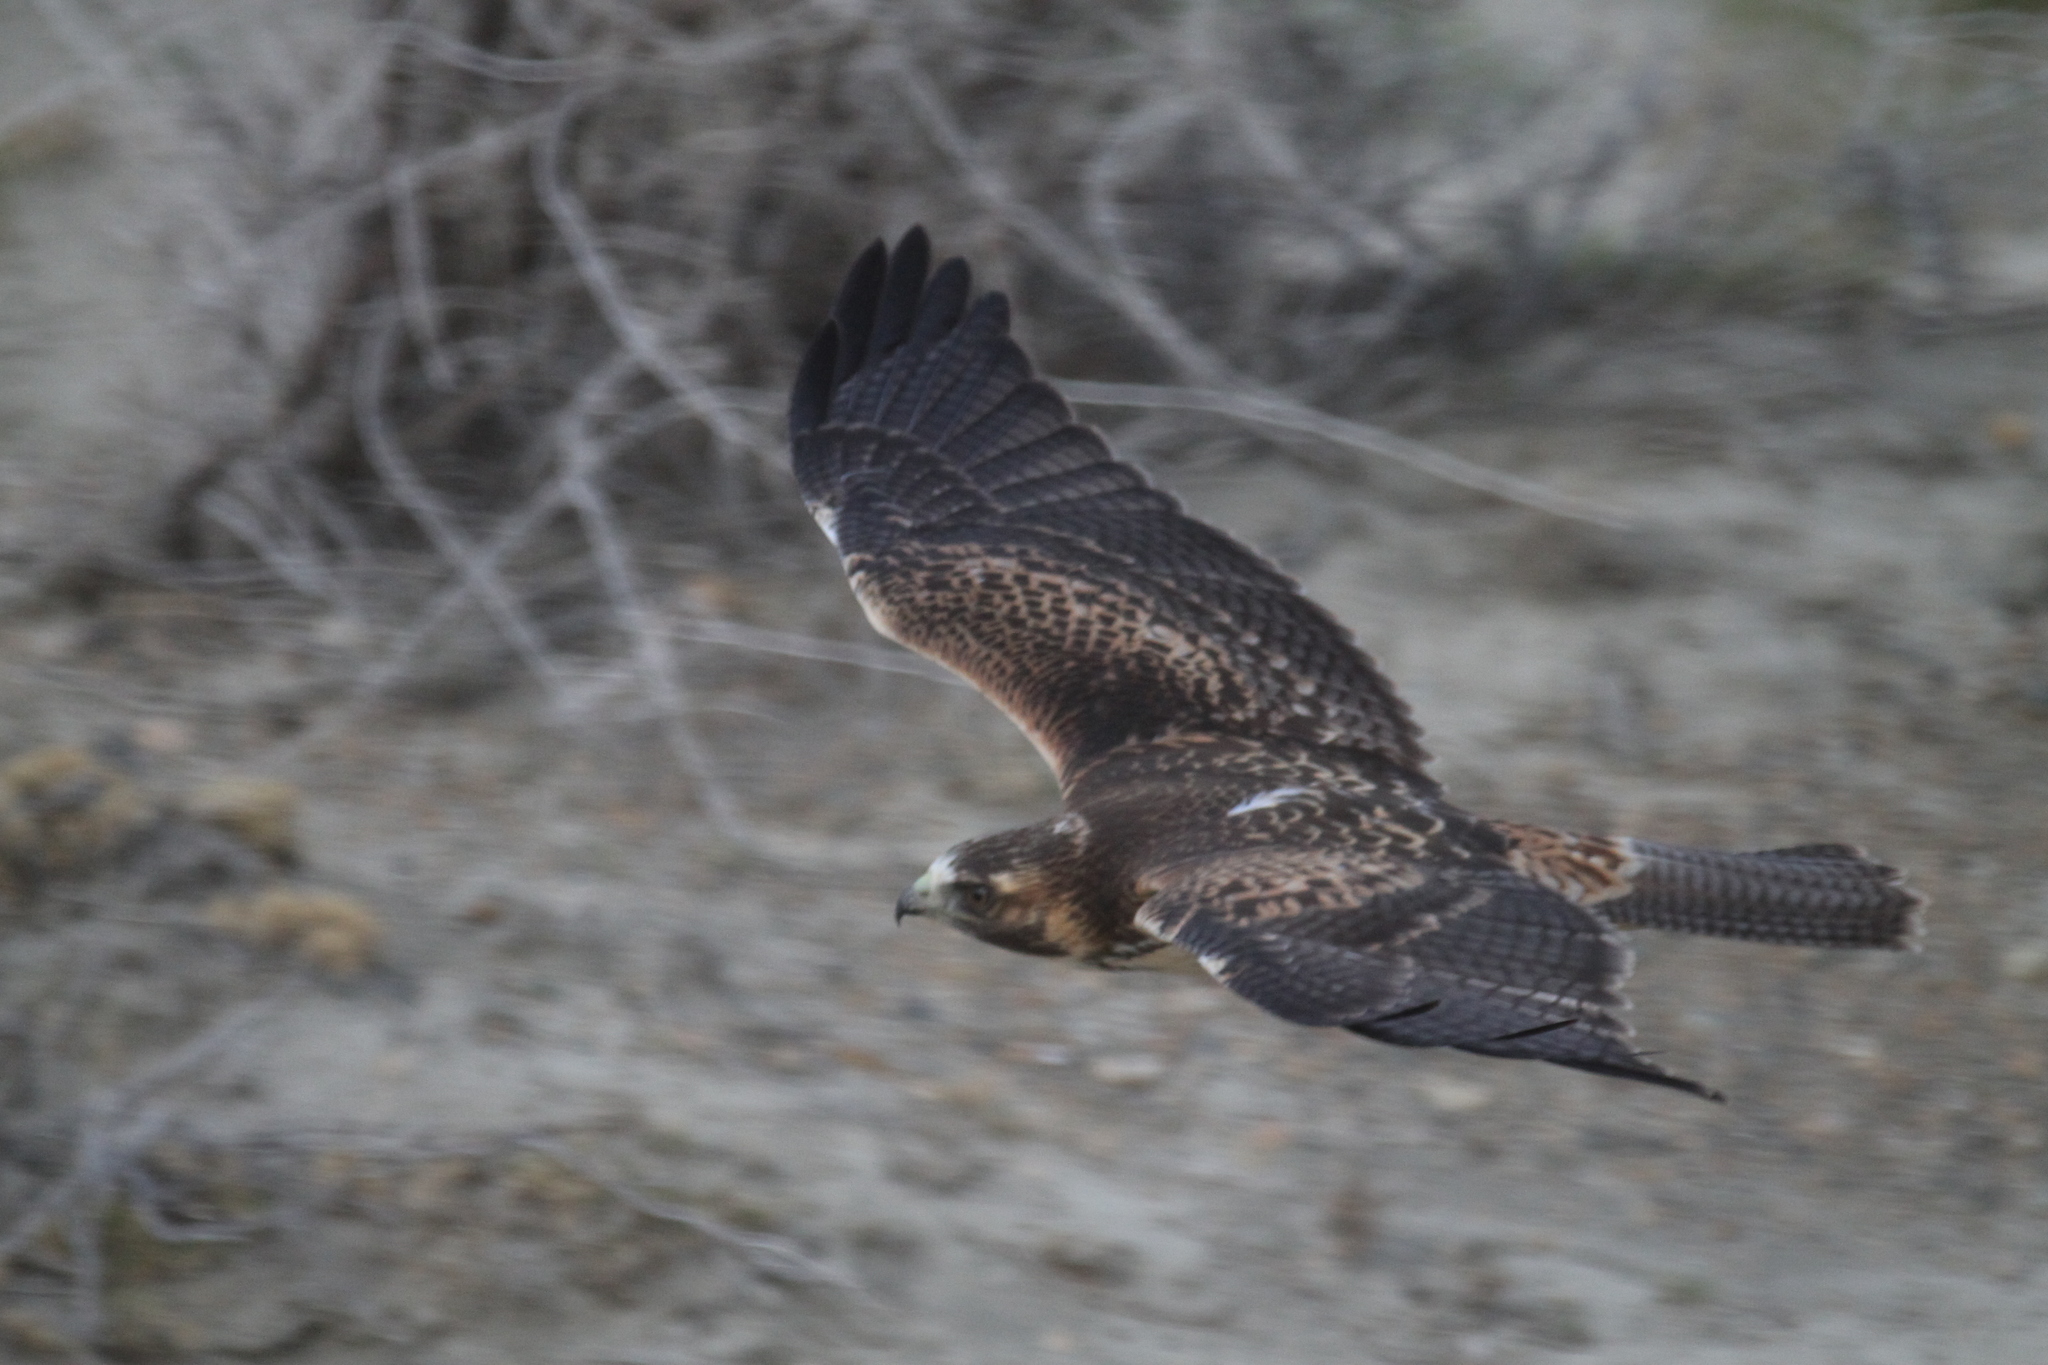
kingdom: Animalia
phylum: Chordata
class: Aves
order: Accipitriformes
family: Accipitridae
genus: Buteo
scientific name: Buteo polyosoma
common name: Variable hawk
